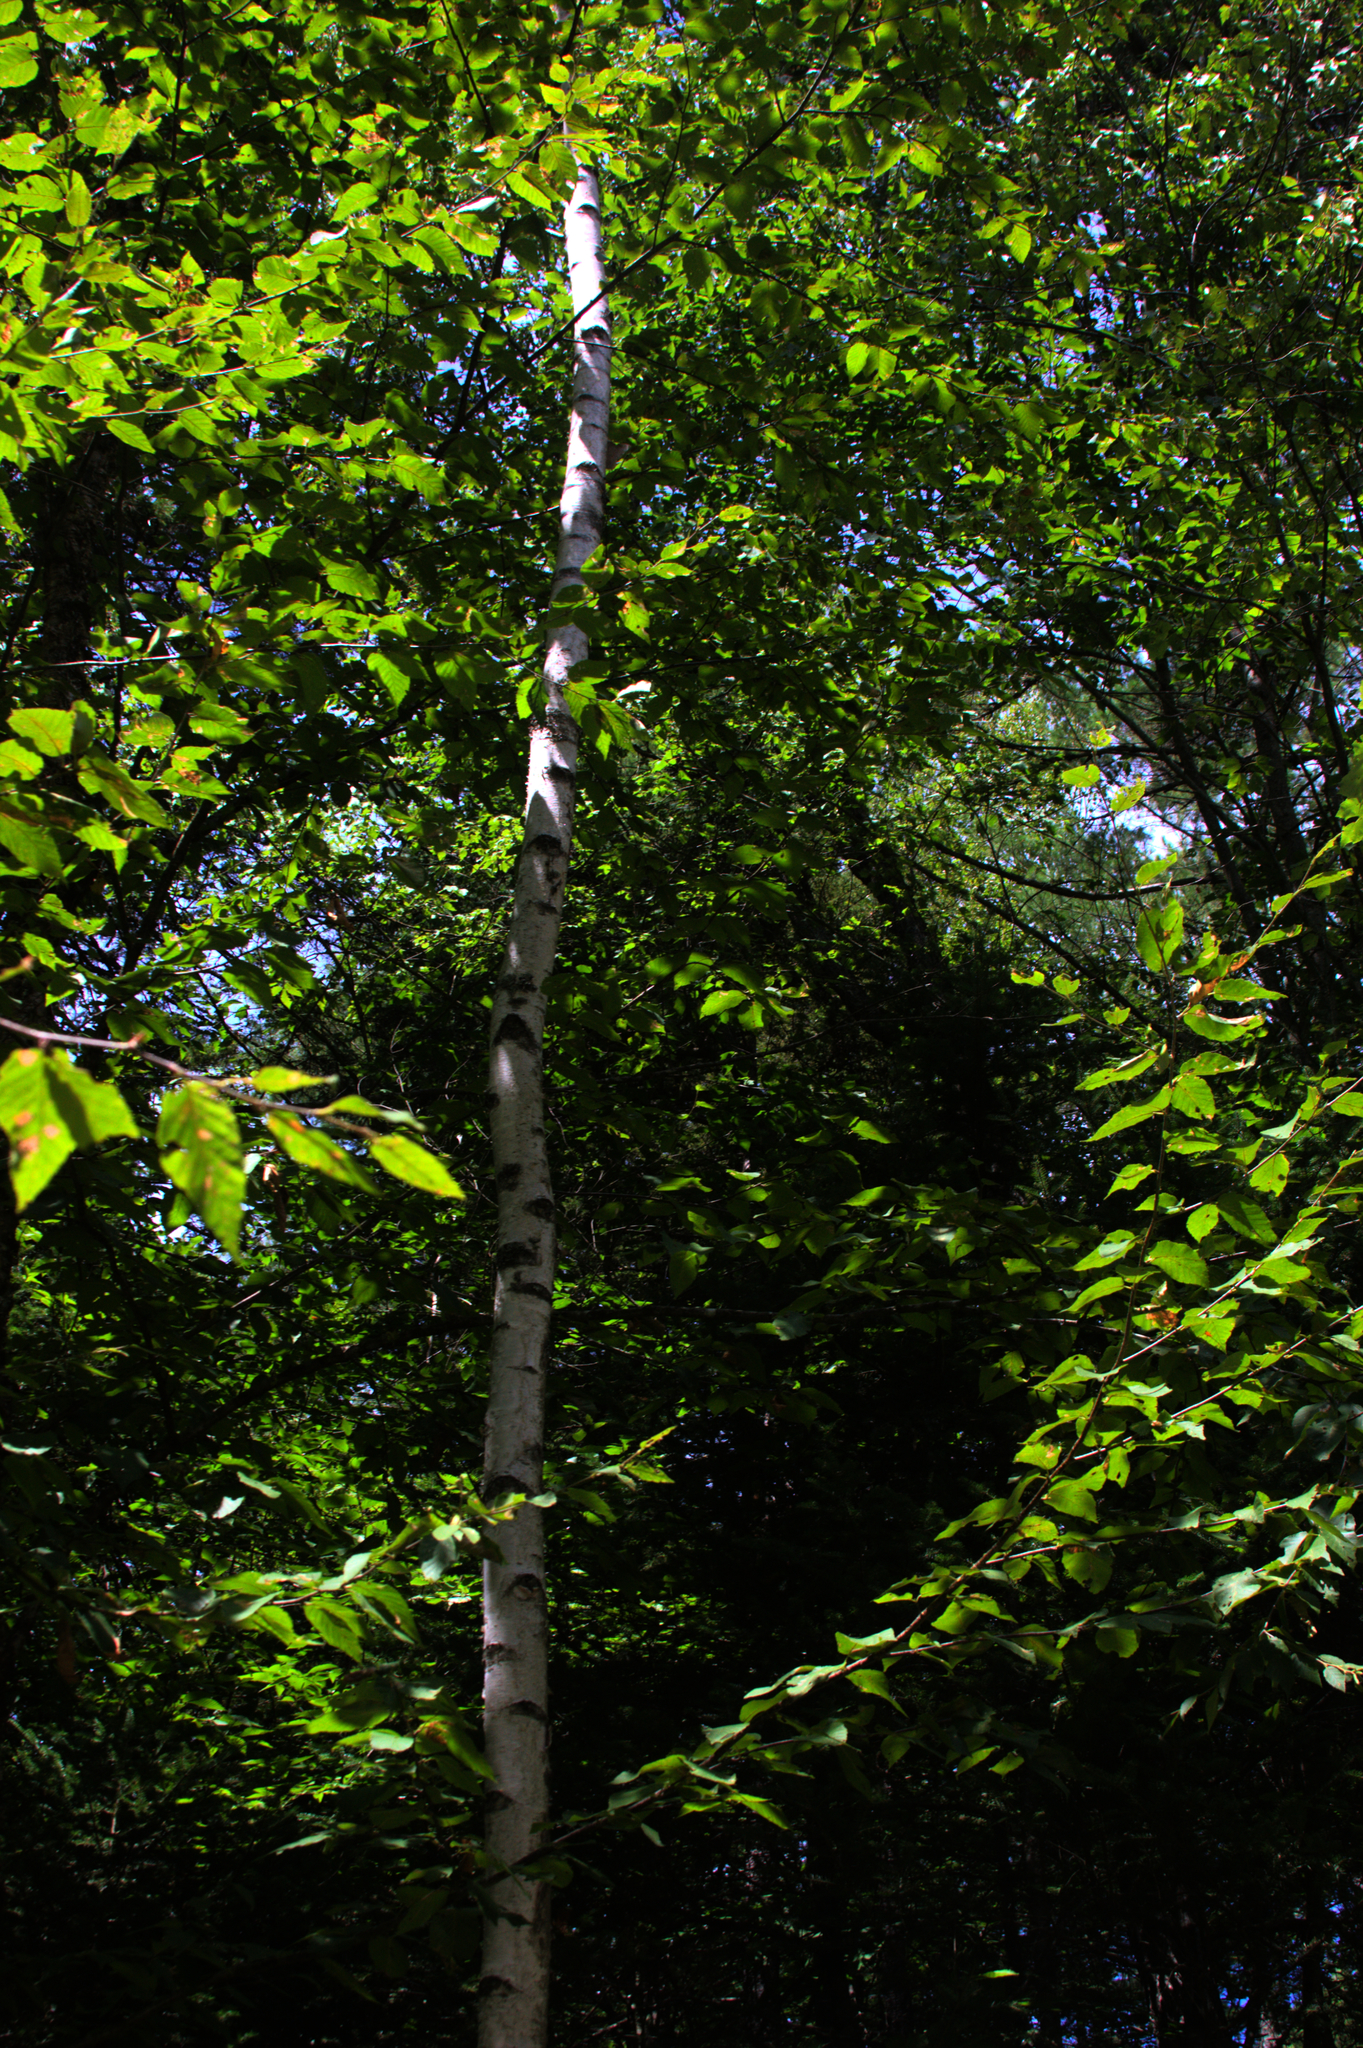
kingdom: Plantae
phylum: Tracheophyta
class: Magnoliopsida
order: Fagales
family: Betulaceae
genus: Betula
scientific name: Betula papyrifera
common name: Paper birch
